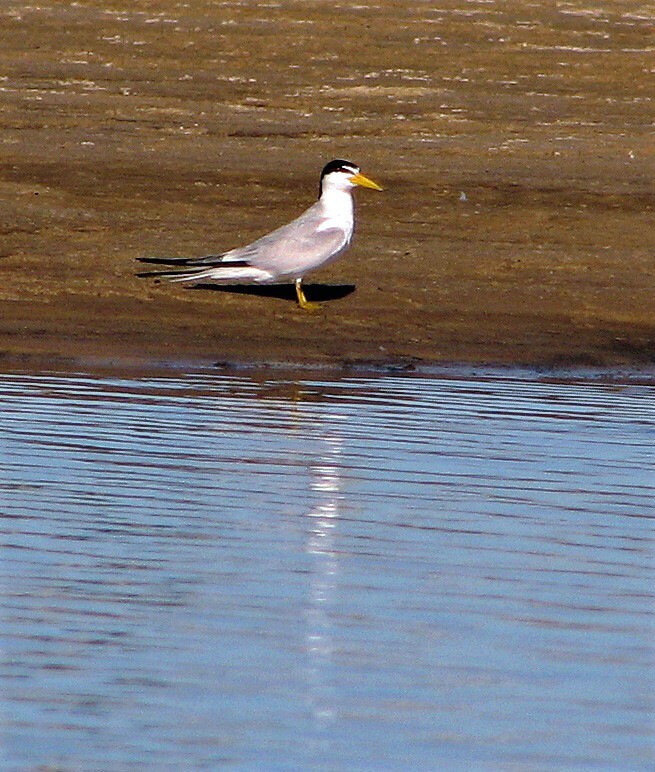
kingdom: Animalia
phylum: Chordata
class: Aves
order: Charadriiformes
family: Laridae
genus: Sternula
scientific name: Sternula superciliaris
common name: Yellow-billed tern
